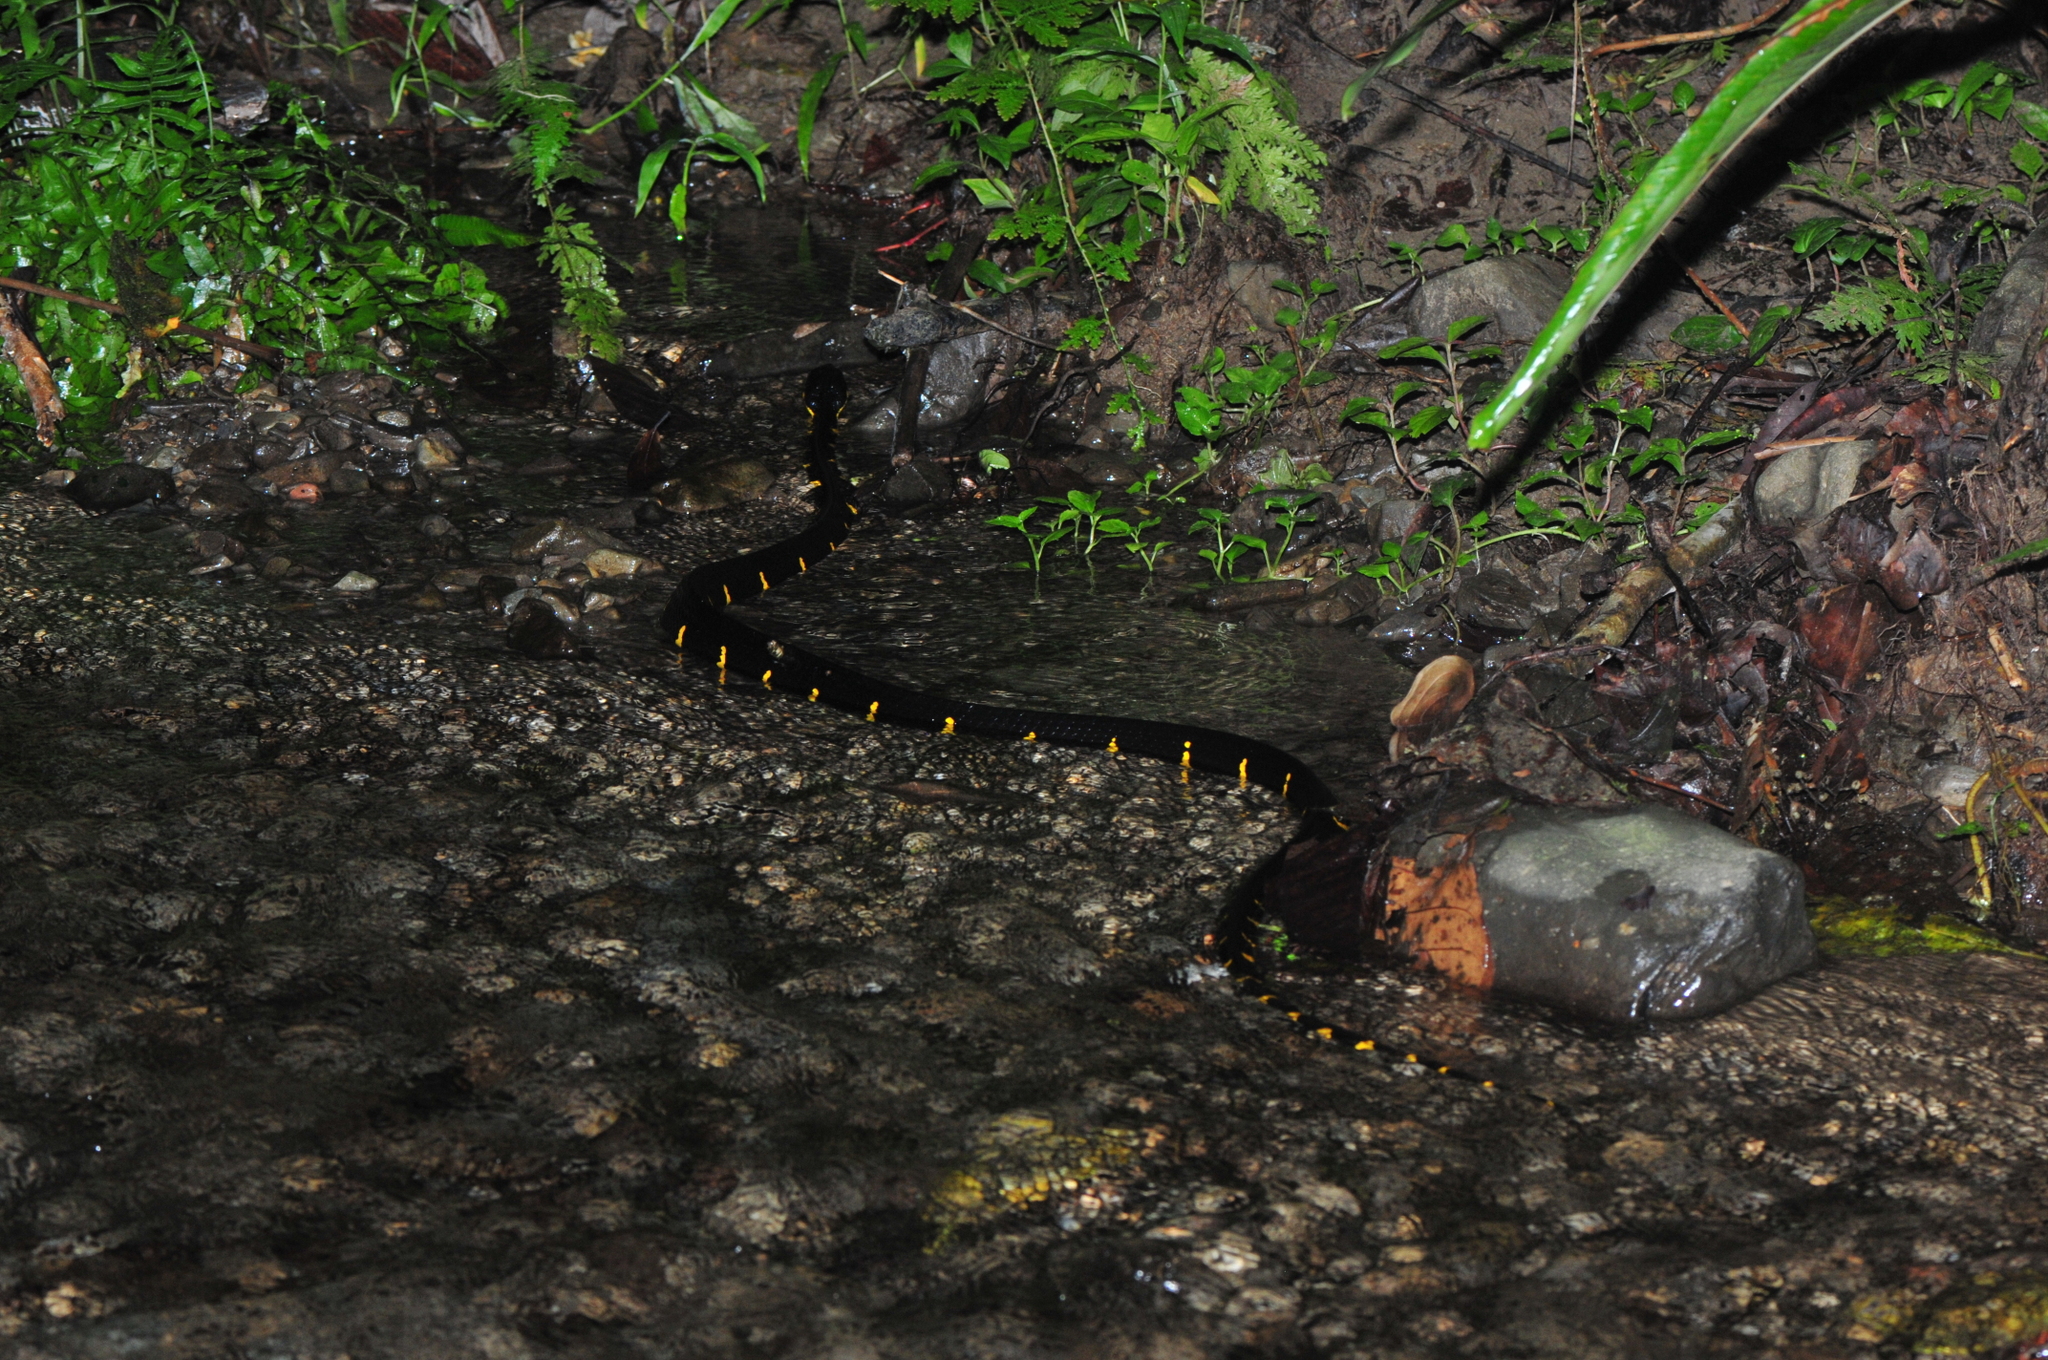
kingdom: Animalia
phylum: Chordata
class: Squamata
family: Colubridae
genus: Boiga
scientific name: Boiga melanota
